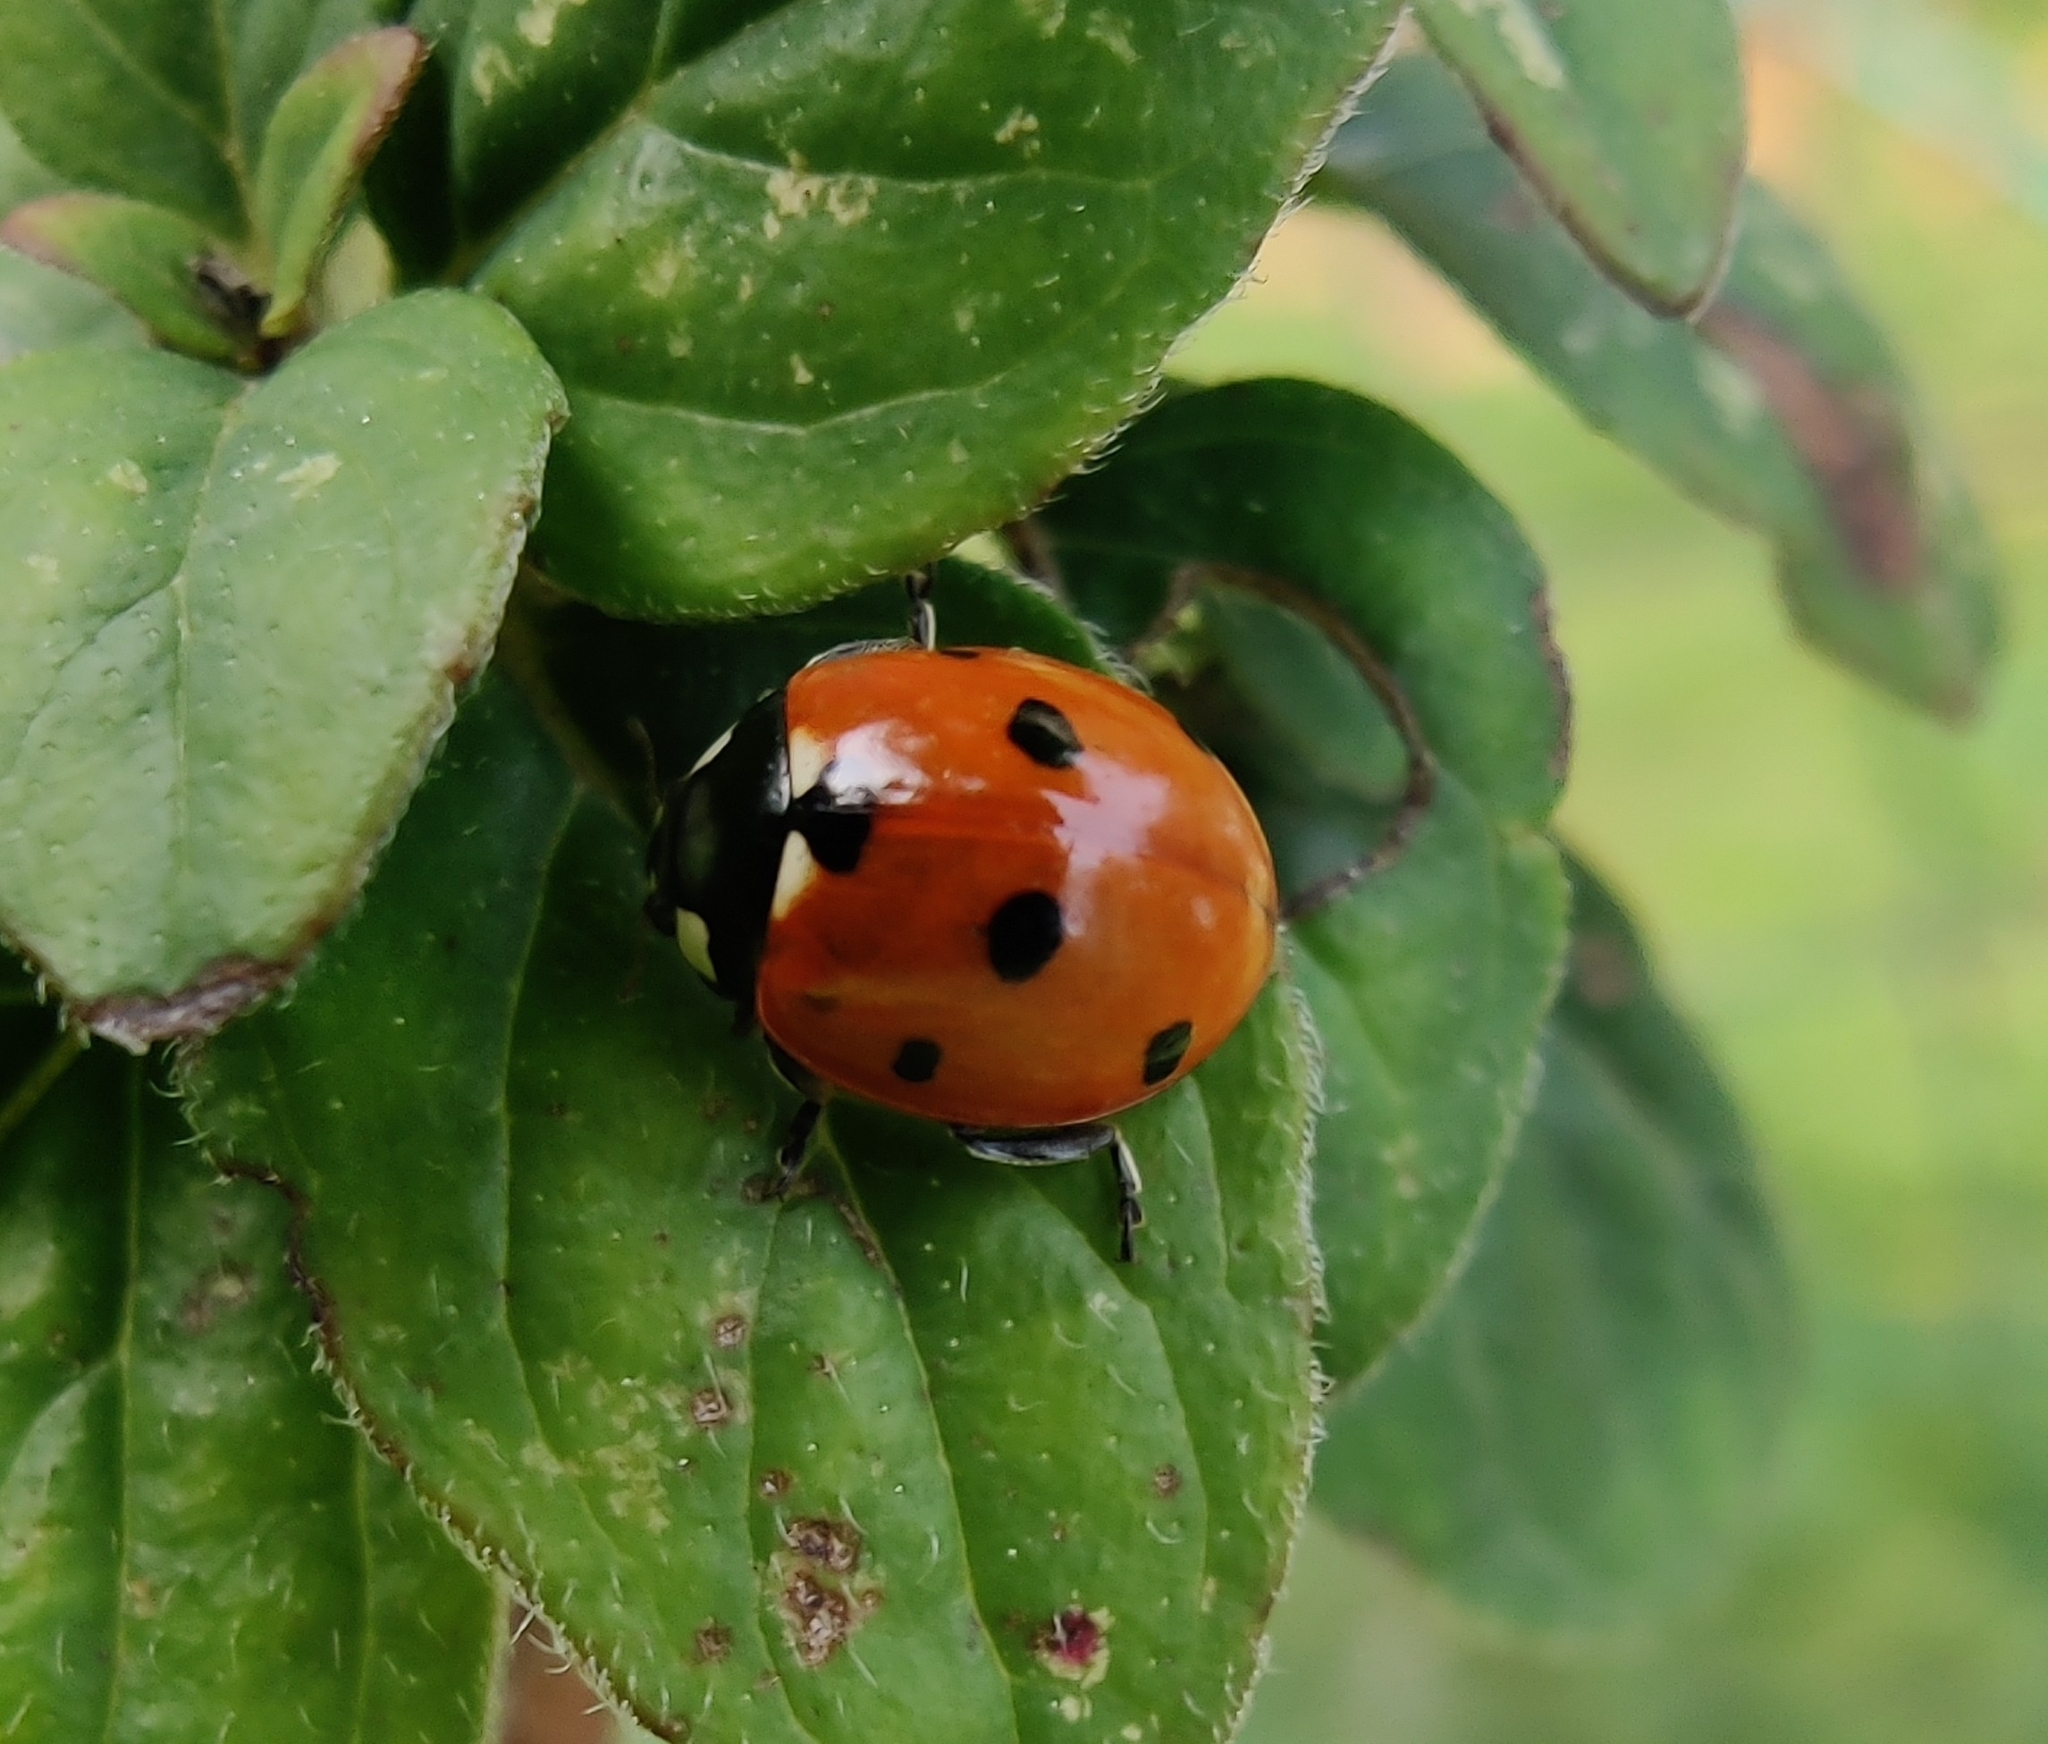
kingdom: Animalia
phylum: Arthropoda
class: Insecta
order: Coleoptera
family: Coccinellidae
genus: Coccinella
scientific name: Coccinella septempunctata
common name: Sevenspotted lady beetle
